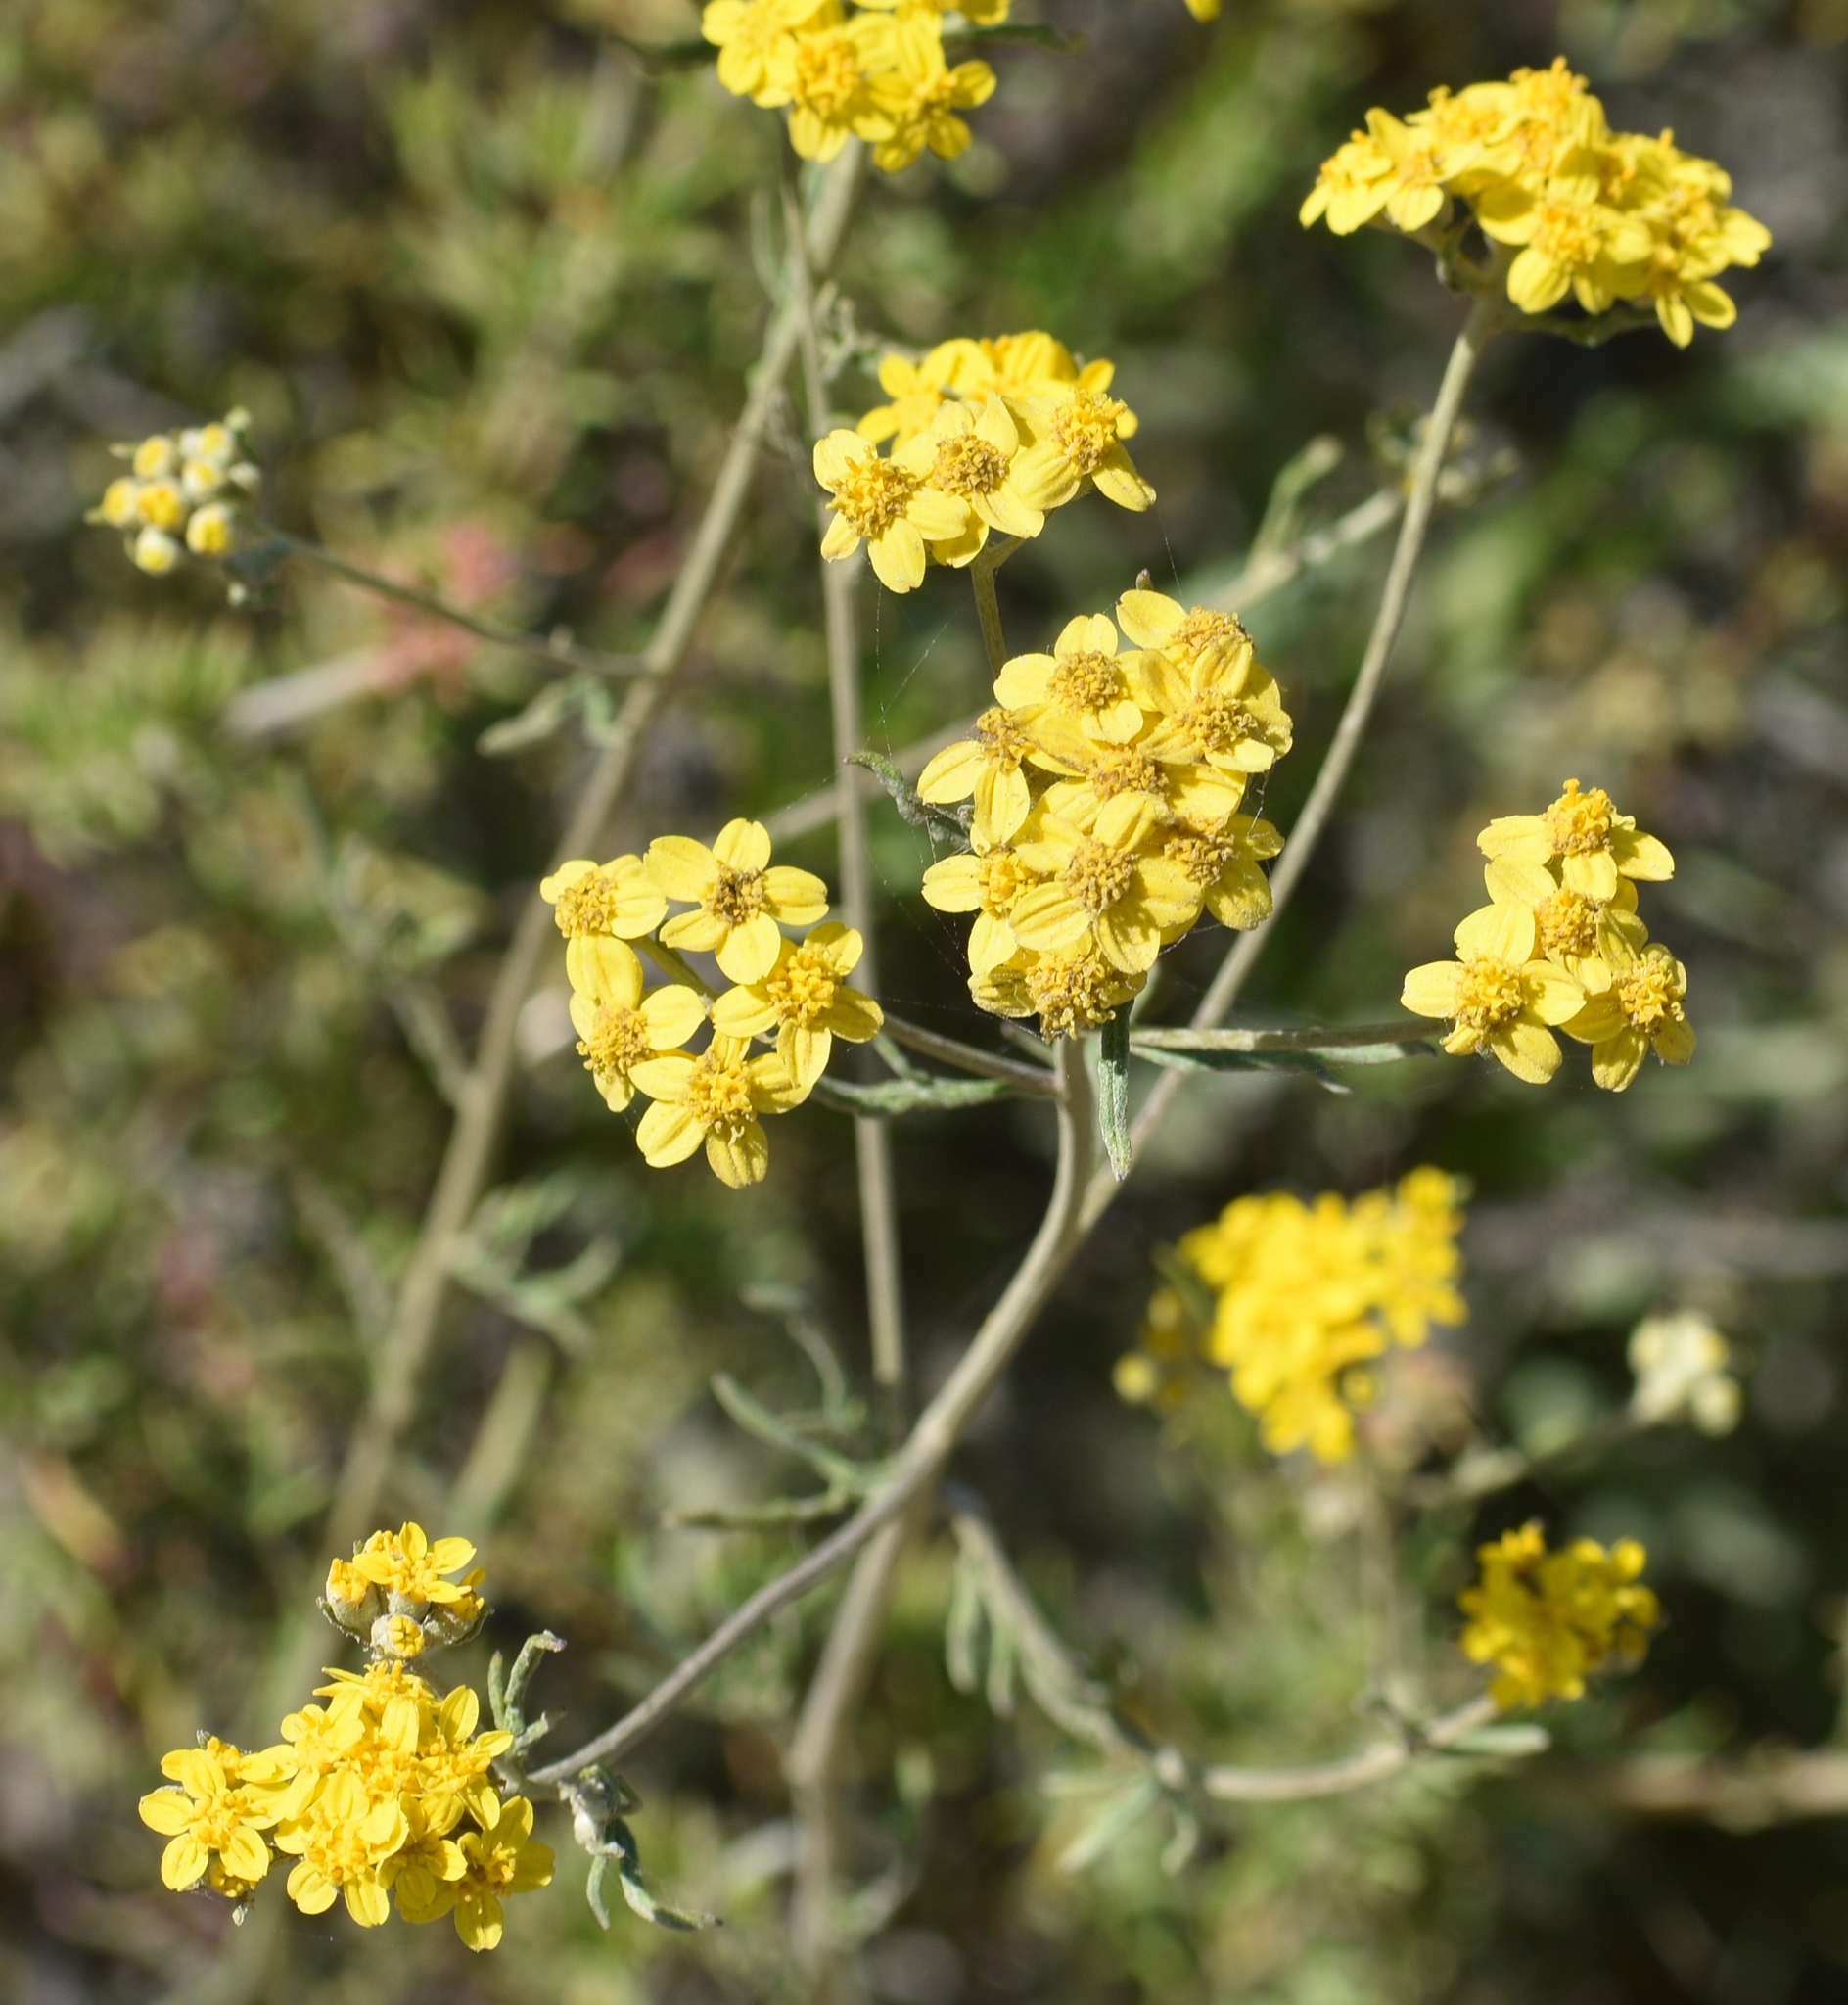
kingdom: Plantae
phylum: Tracheophyta
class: Magnoliopsida
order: Asterales
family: Asteraceae
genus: Eriophyllum
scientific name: Eriophyllum confertiflorum
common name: Golden-yarrow
